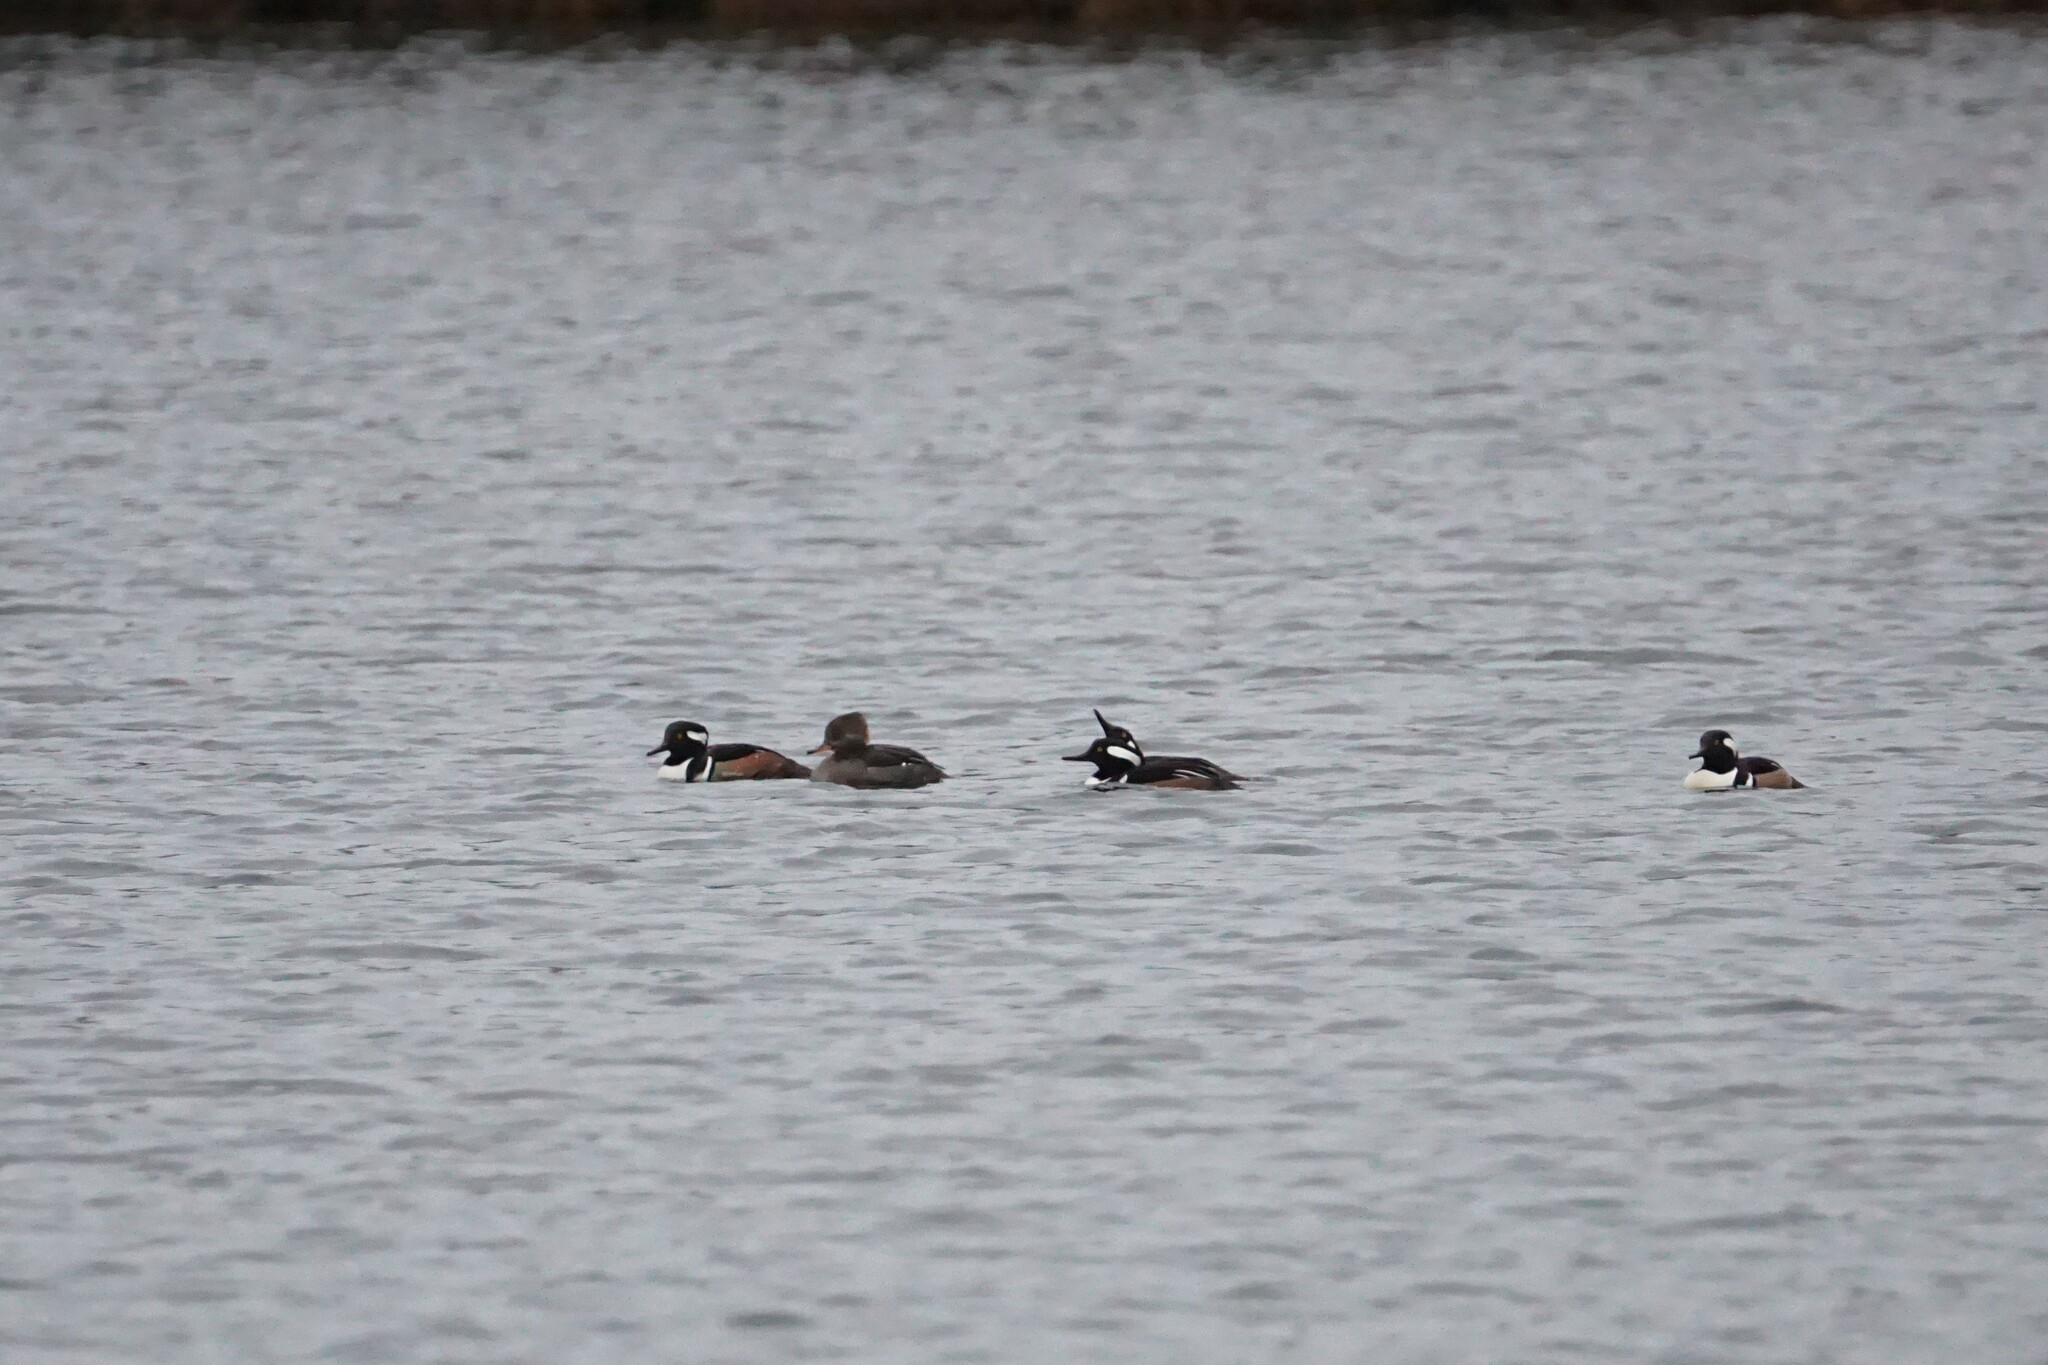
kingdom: Animalia
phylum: Chordata
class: Aves
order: Anseriformes
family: Anatidae
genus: Lophodytes
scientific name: Lophodytes cucullatus
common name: Hooded merganser
